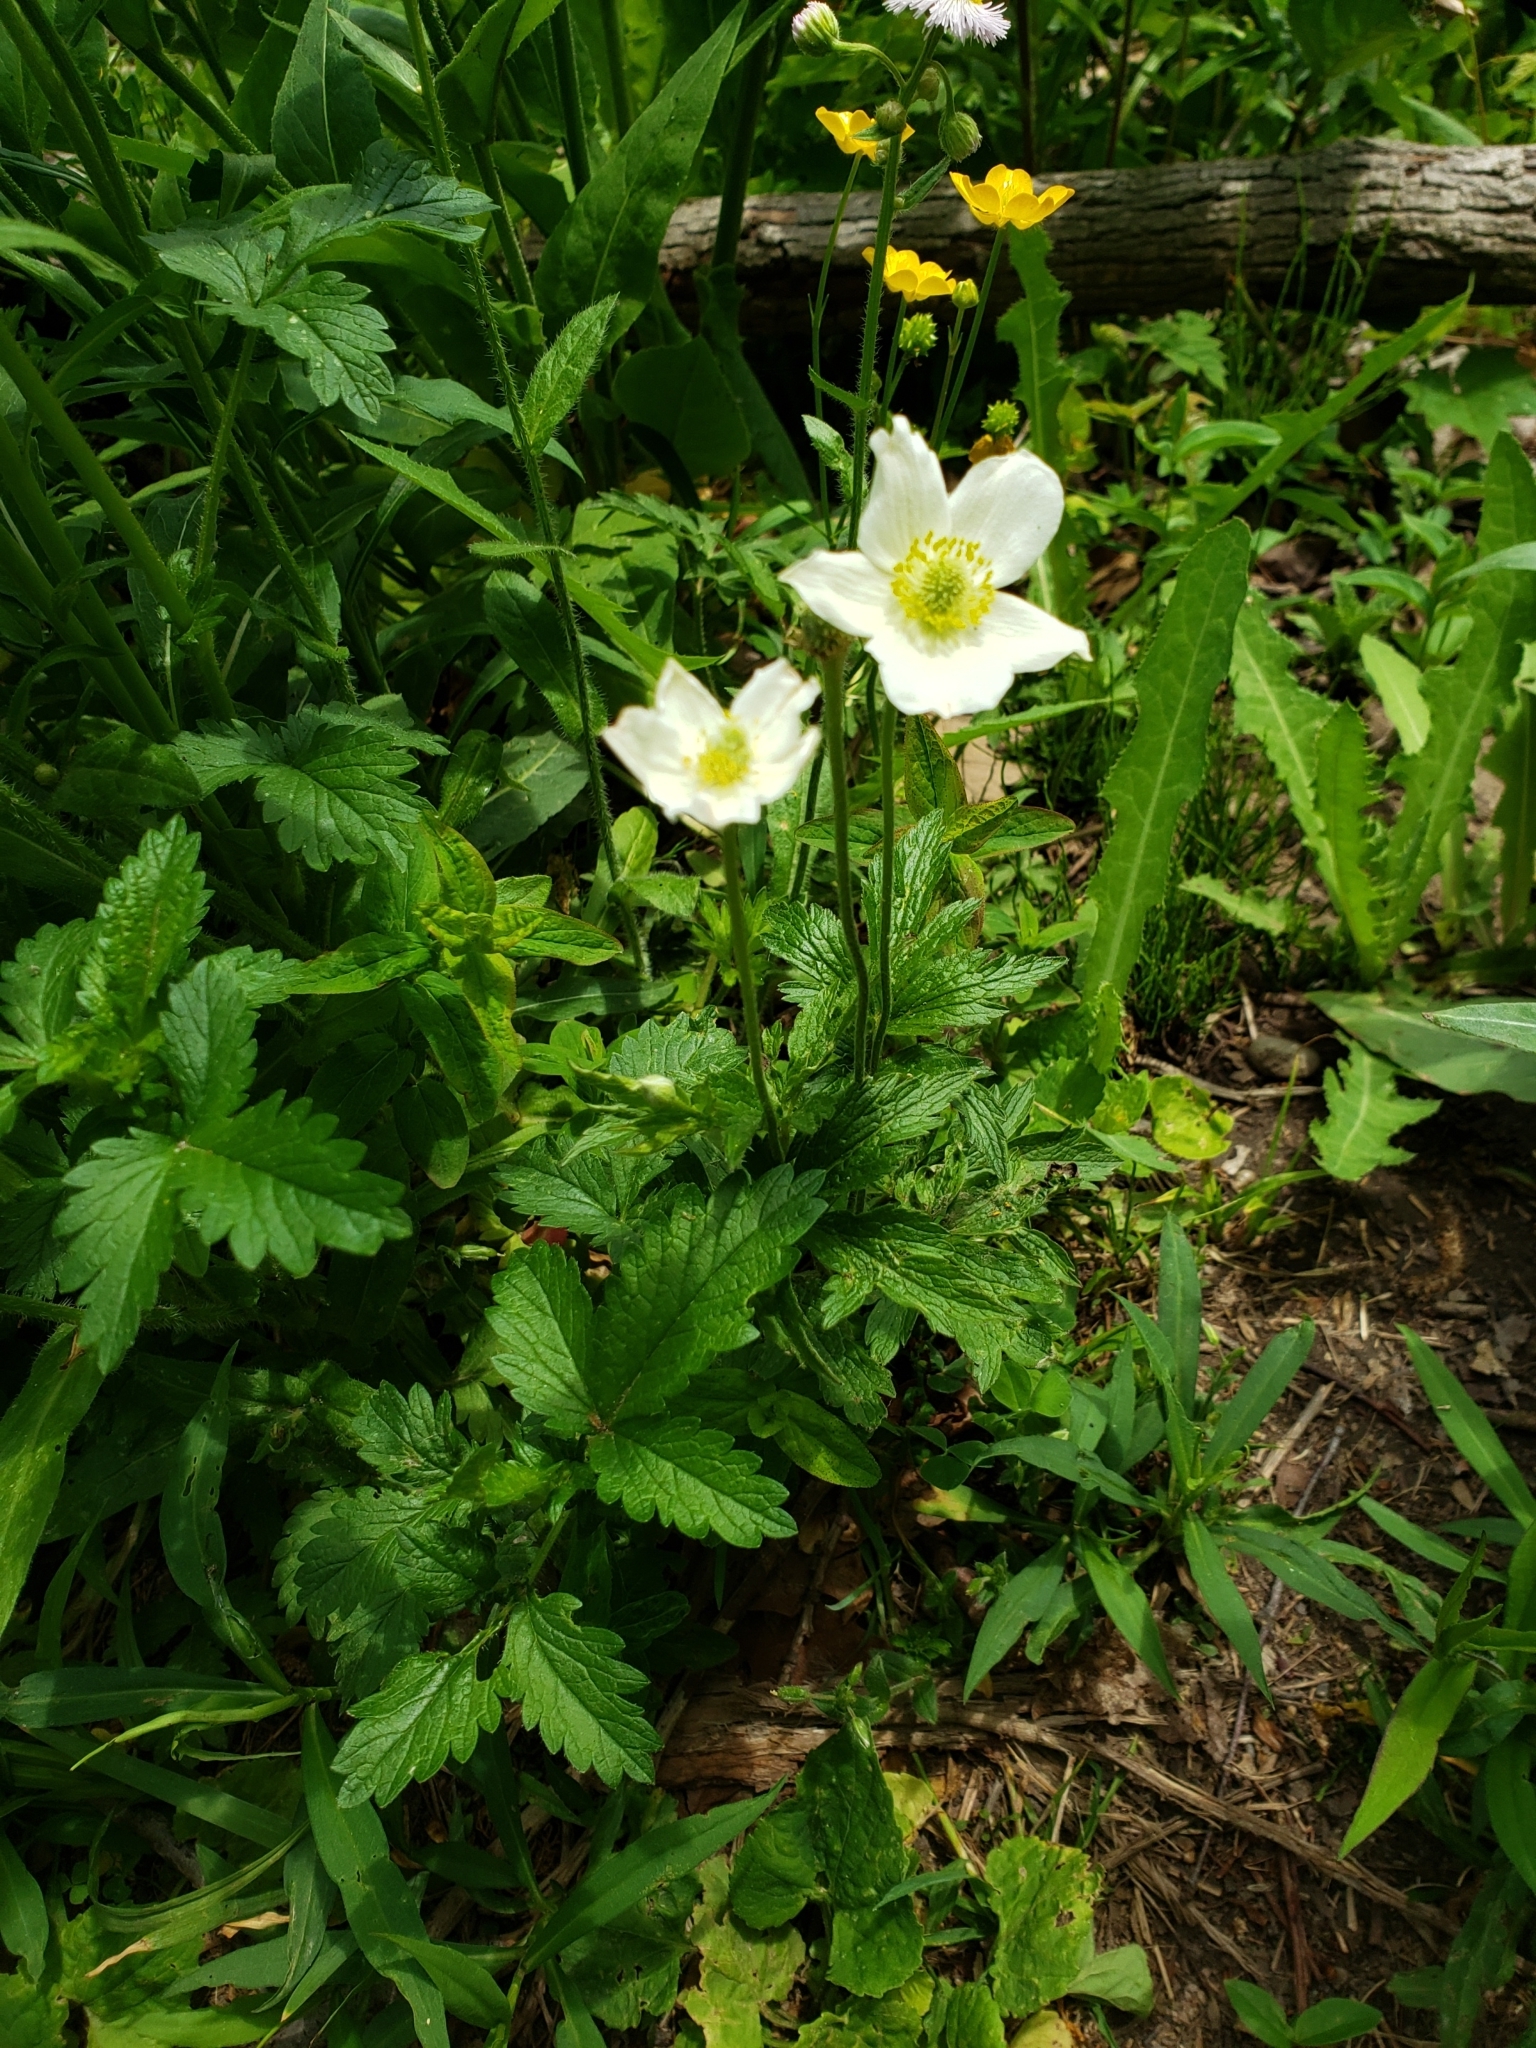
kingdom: Plantae
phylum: Tracheophyta
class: Magnoliopsida
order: Ranunculales
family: Ranunculaceae
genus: Anemonastrum
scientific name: Anemonastrum canadense
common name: Canada anemone
